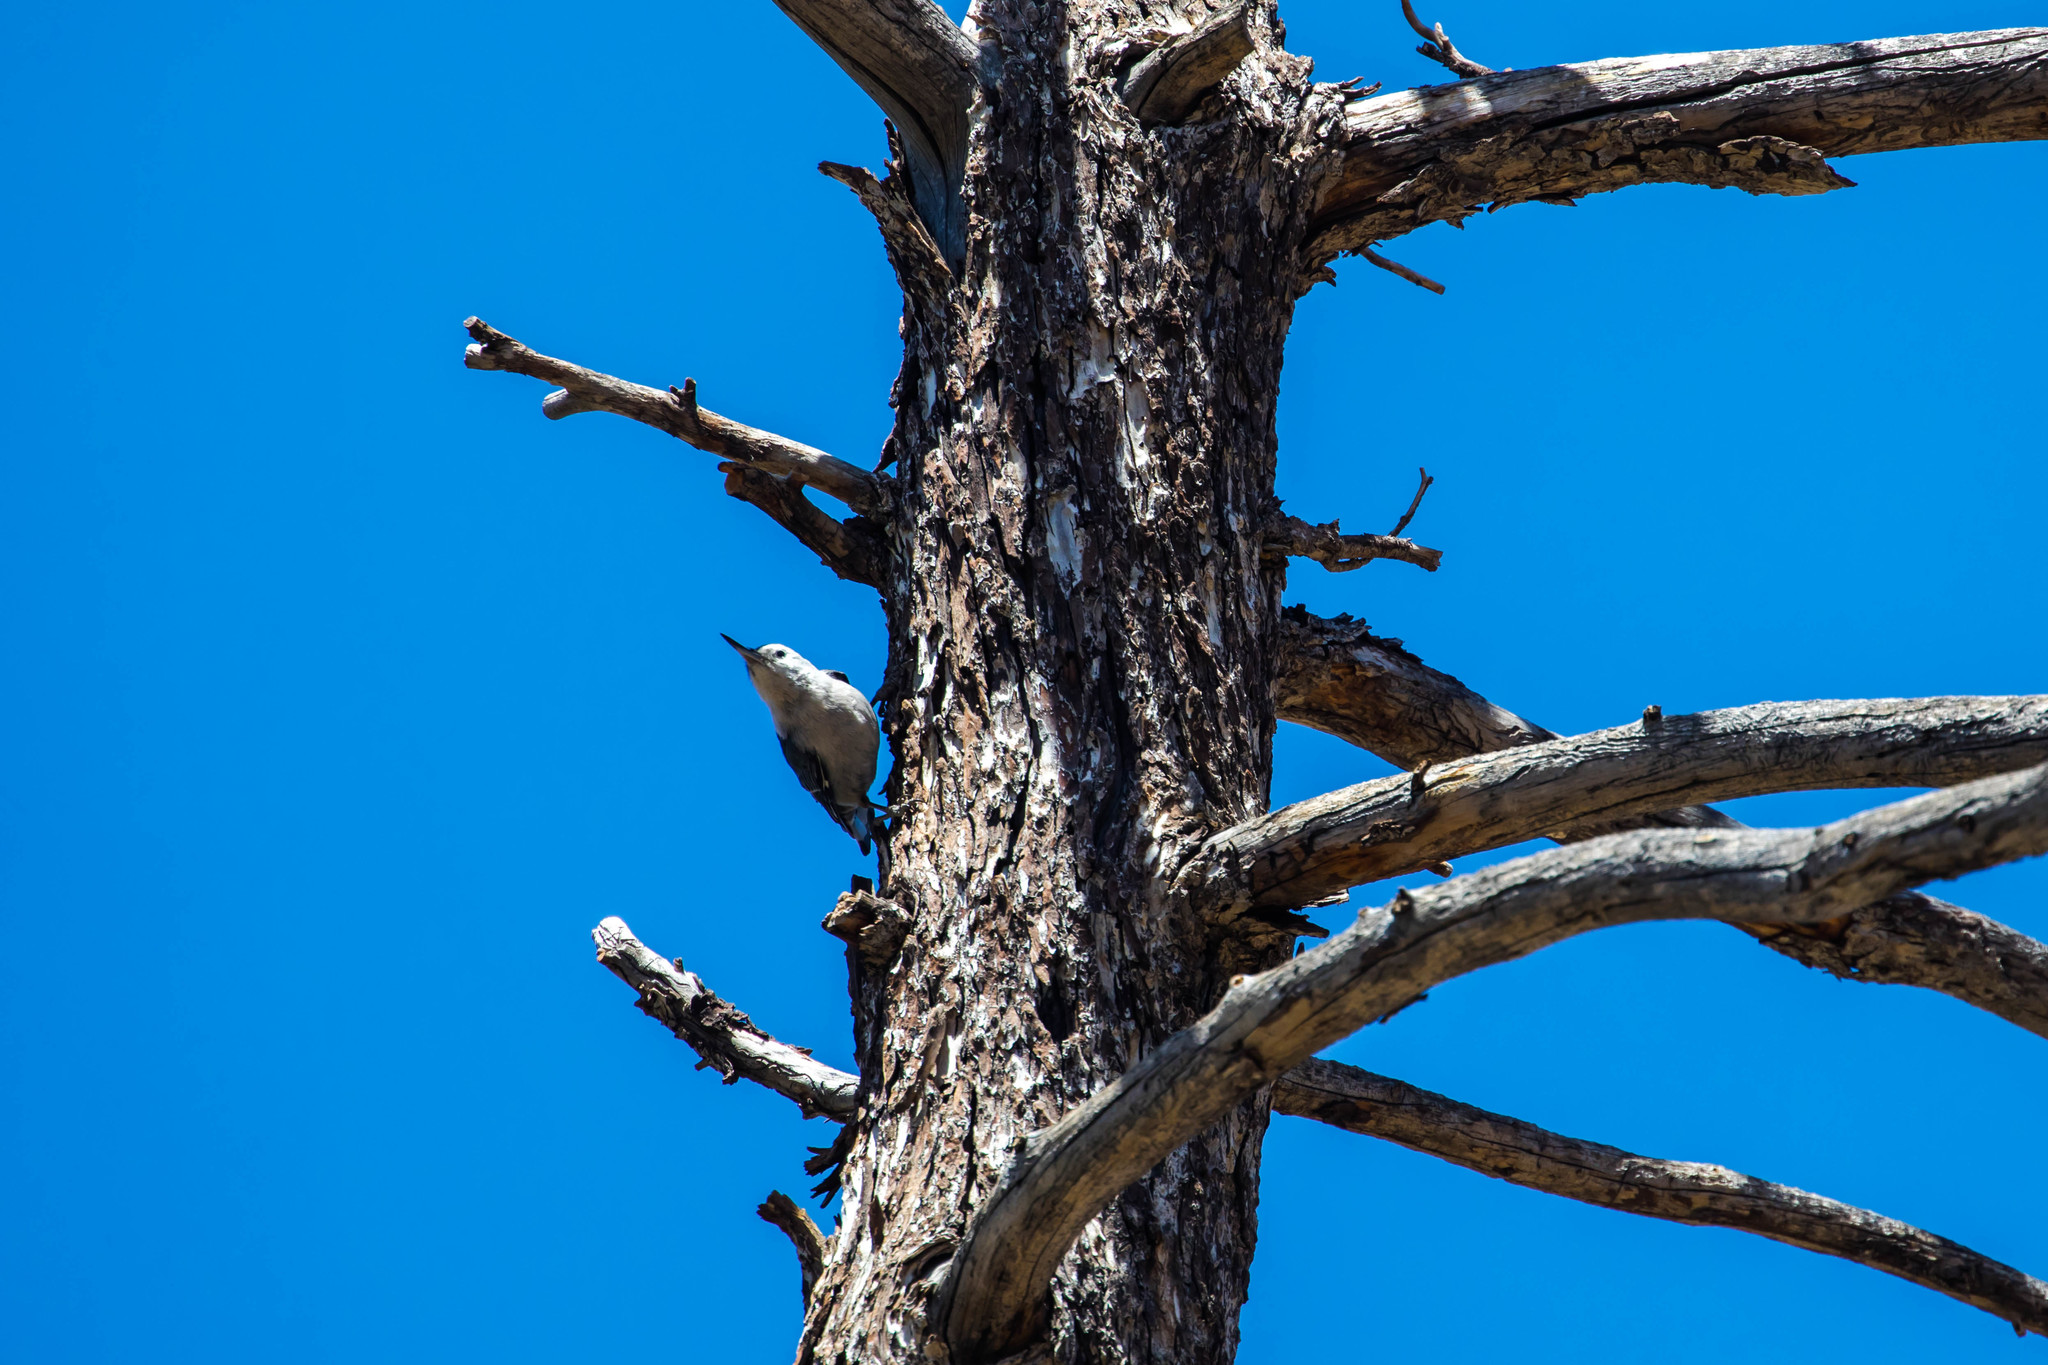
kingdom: Animalia
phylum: Chordata
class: Aves
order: Passeriformes
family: Sittidae
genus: Sitta
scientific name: Sitta carolinensis
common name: White-breasted nuthatch
